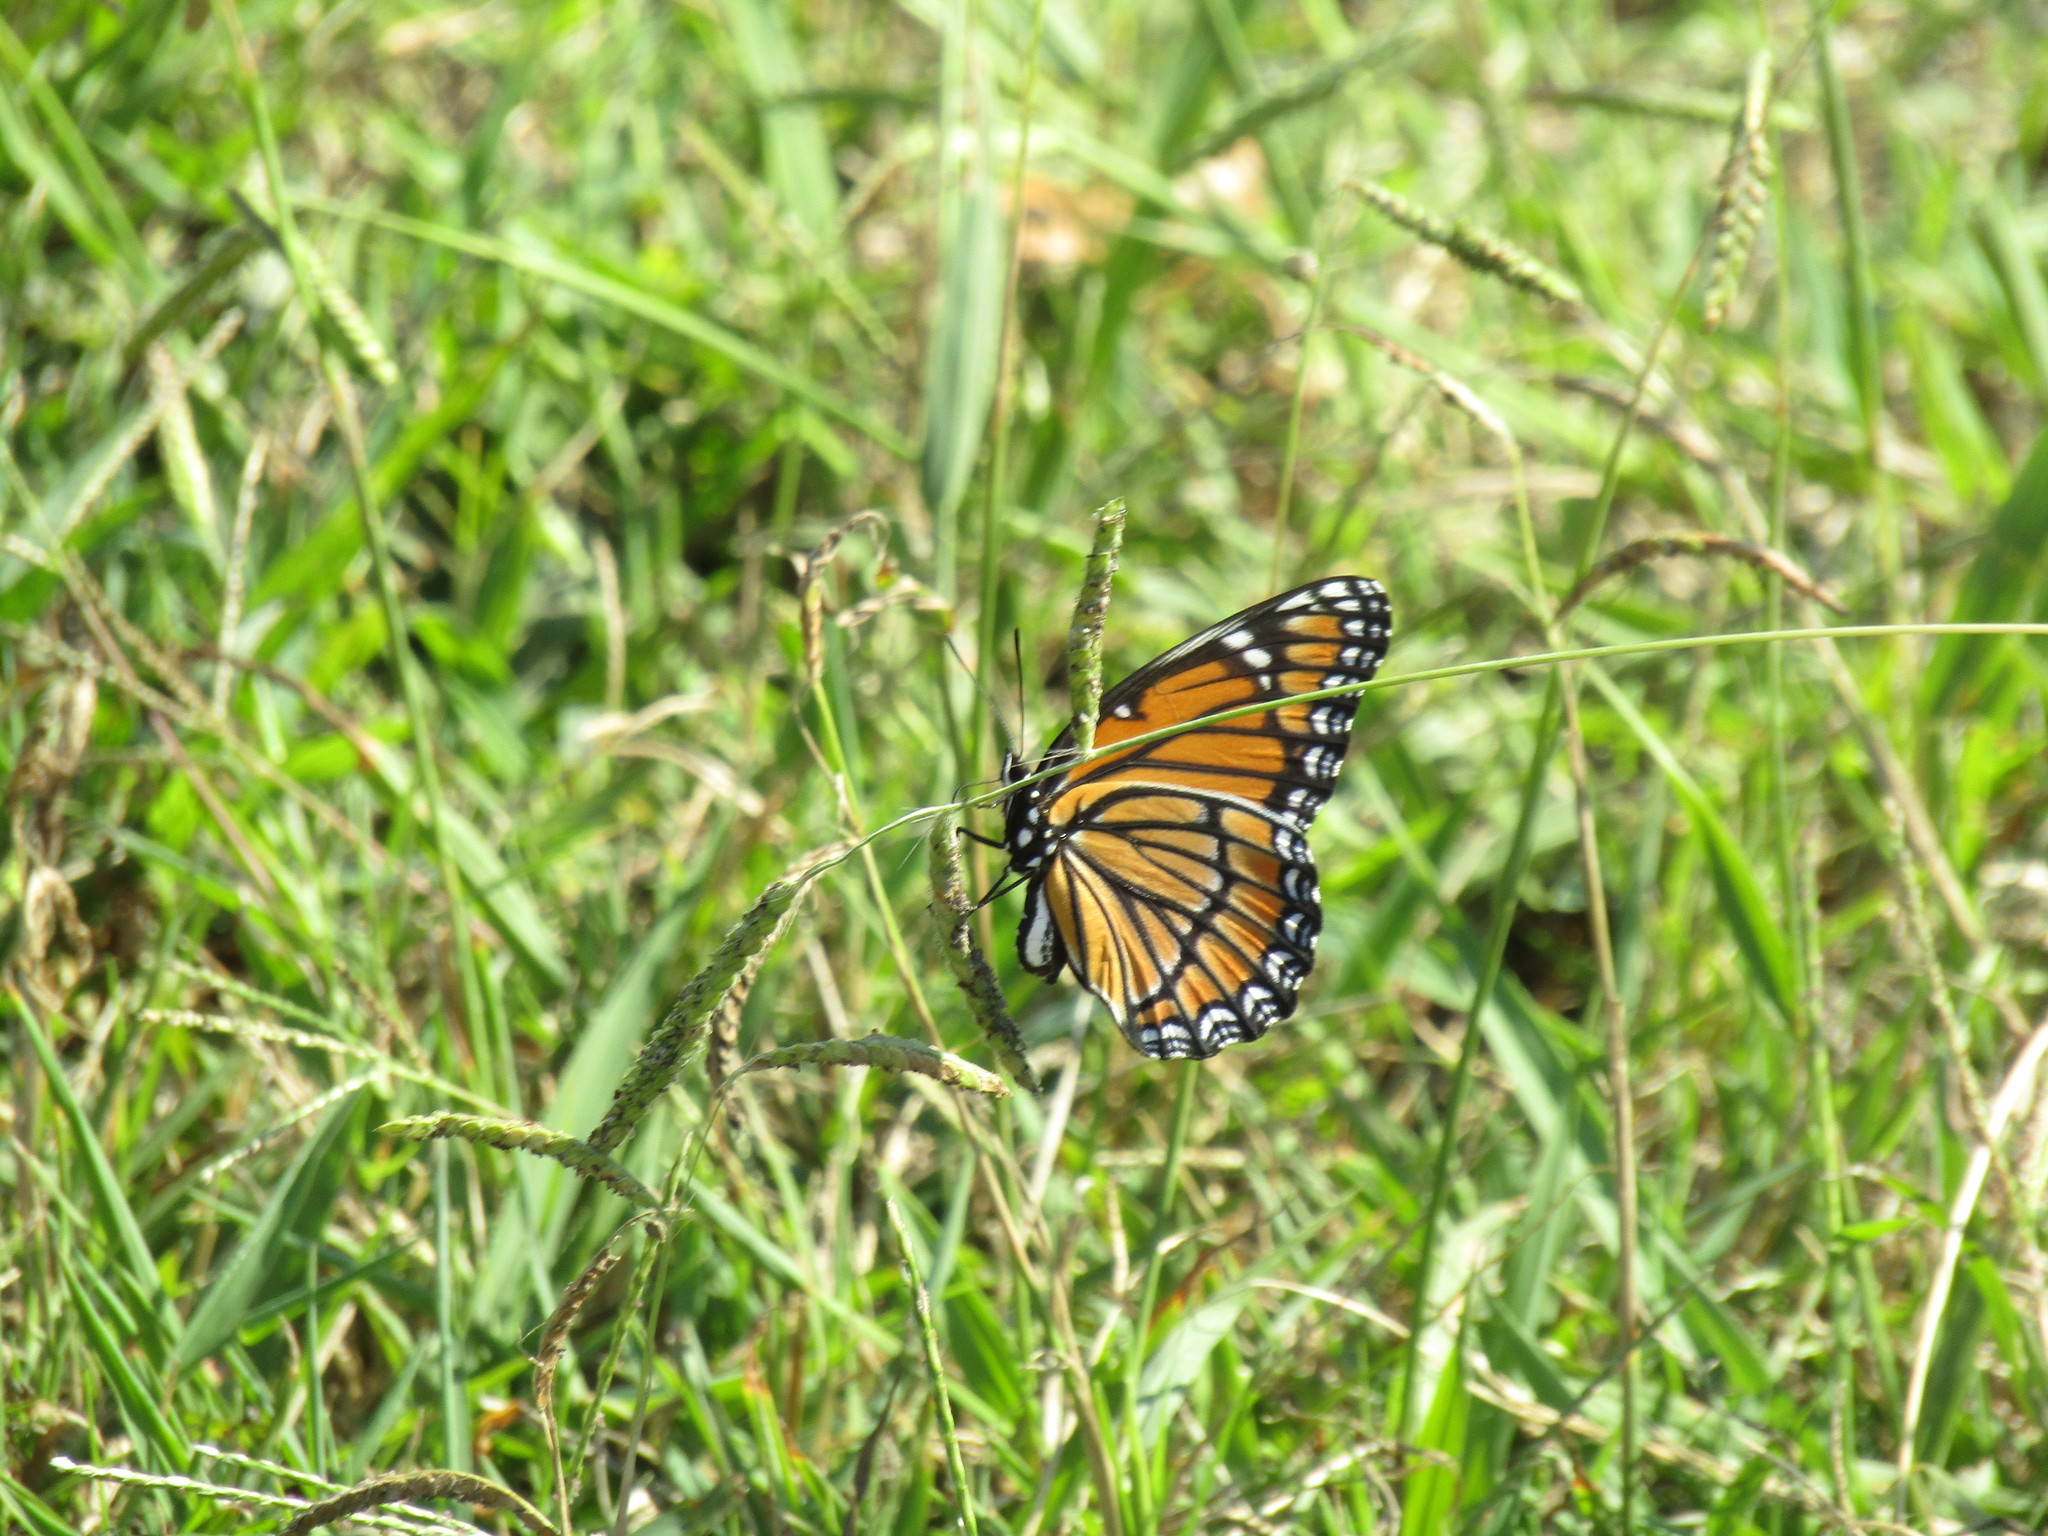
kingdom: Animalia
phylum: Arthropoda
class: Insecta
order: Lepidoptera
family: Nymphalidae
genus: Limenitis
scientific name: Limenitis archippus
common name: Viceroy
